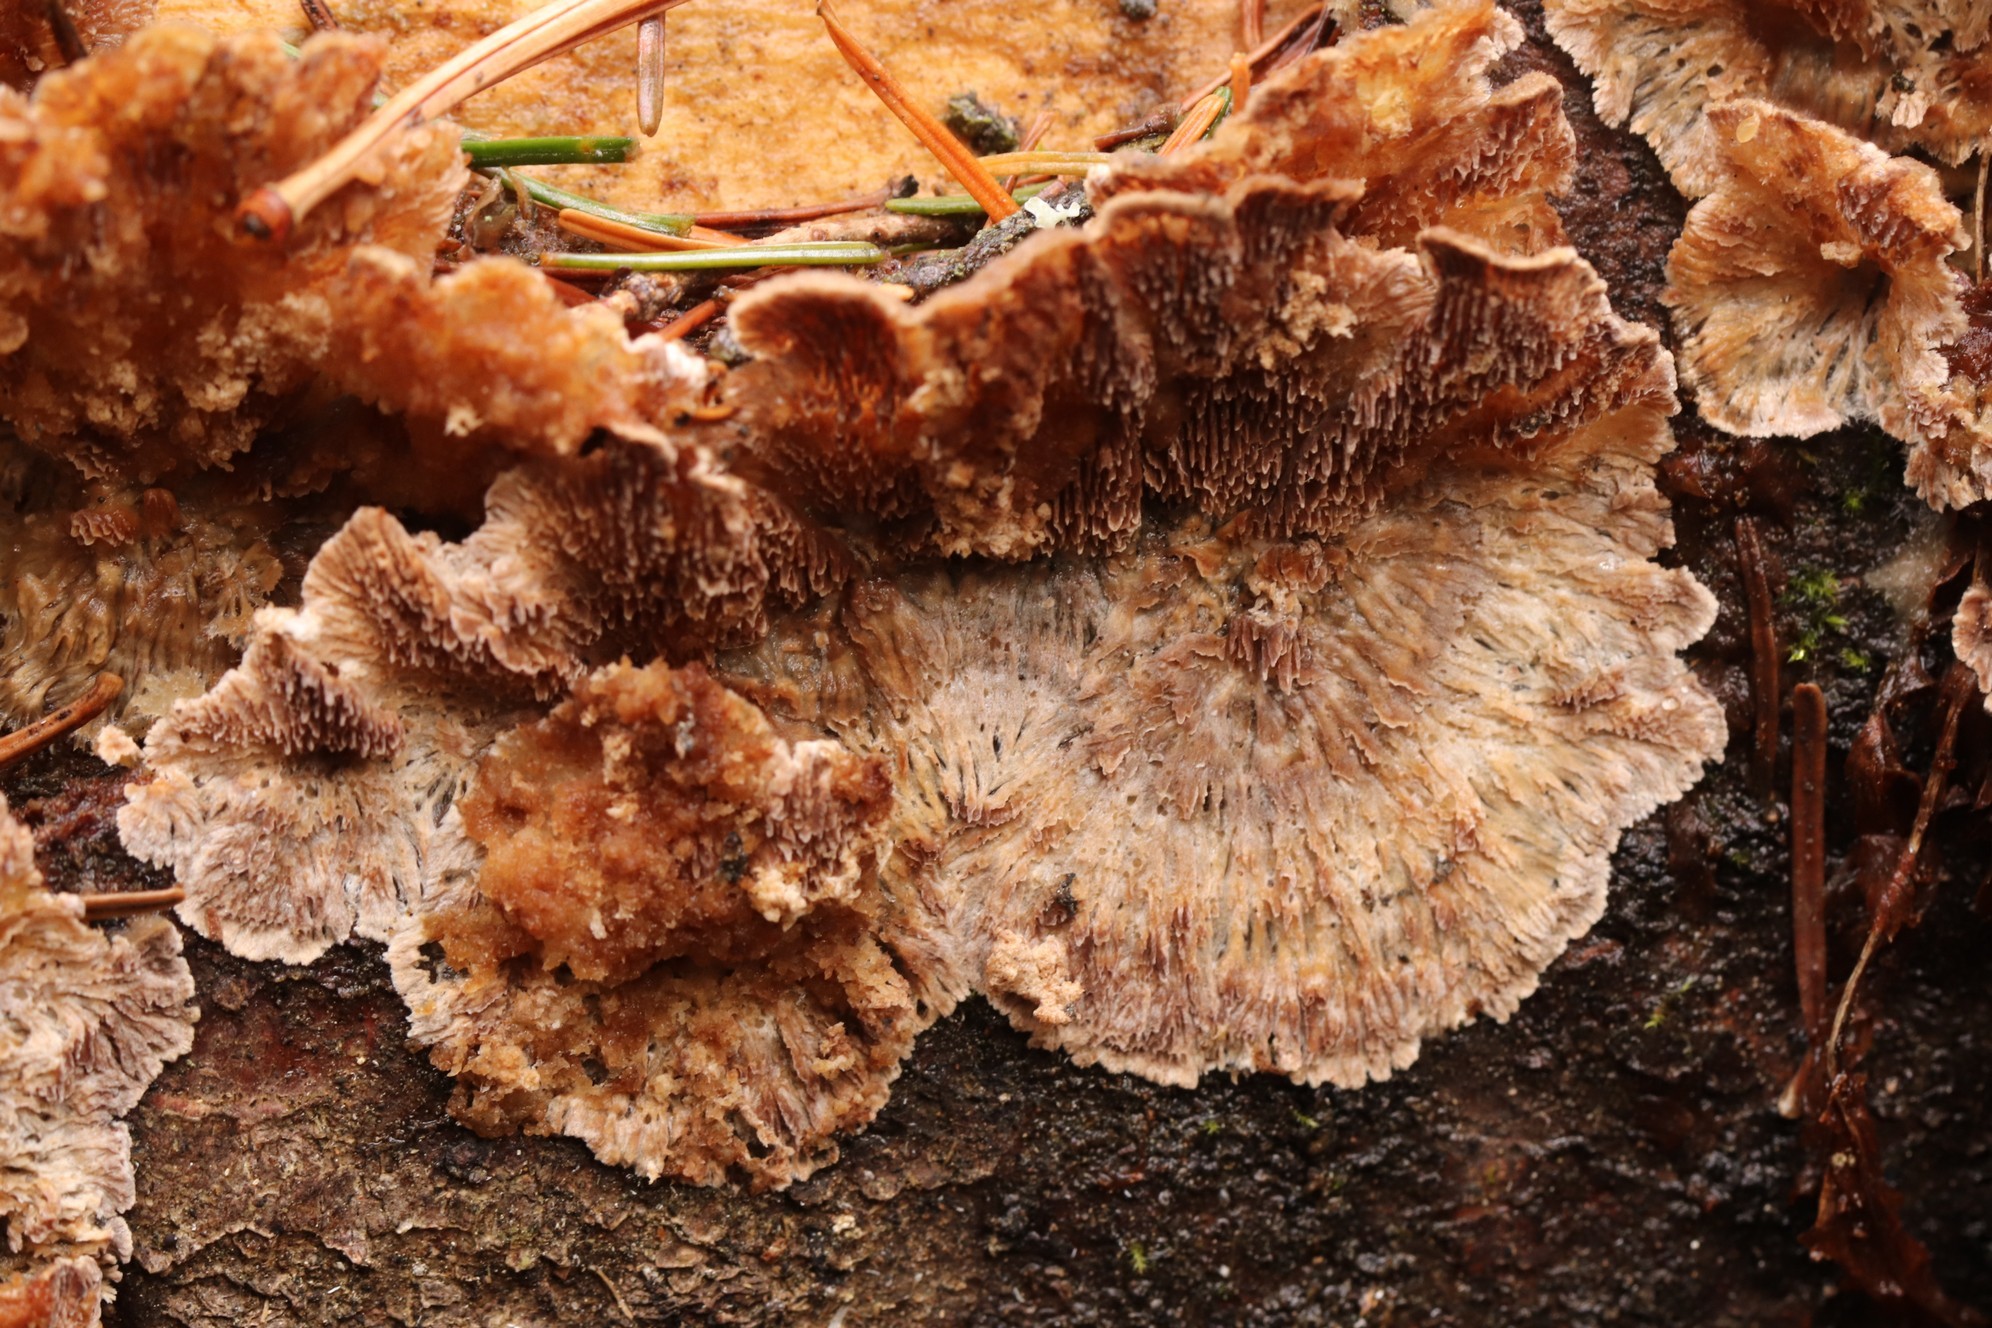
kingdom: Fungi
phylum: Basidiomycota
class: Agaricomycetes
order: Hymenochaetales
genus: Trichaptum
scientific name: Trichaptum fuscoviolaceum
